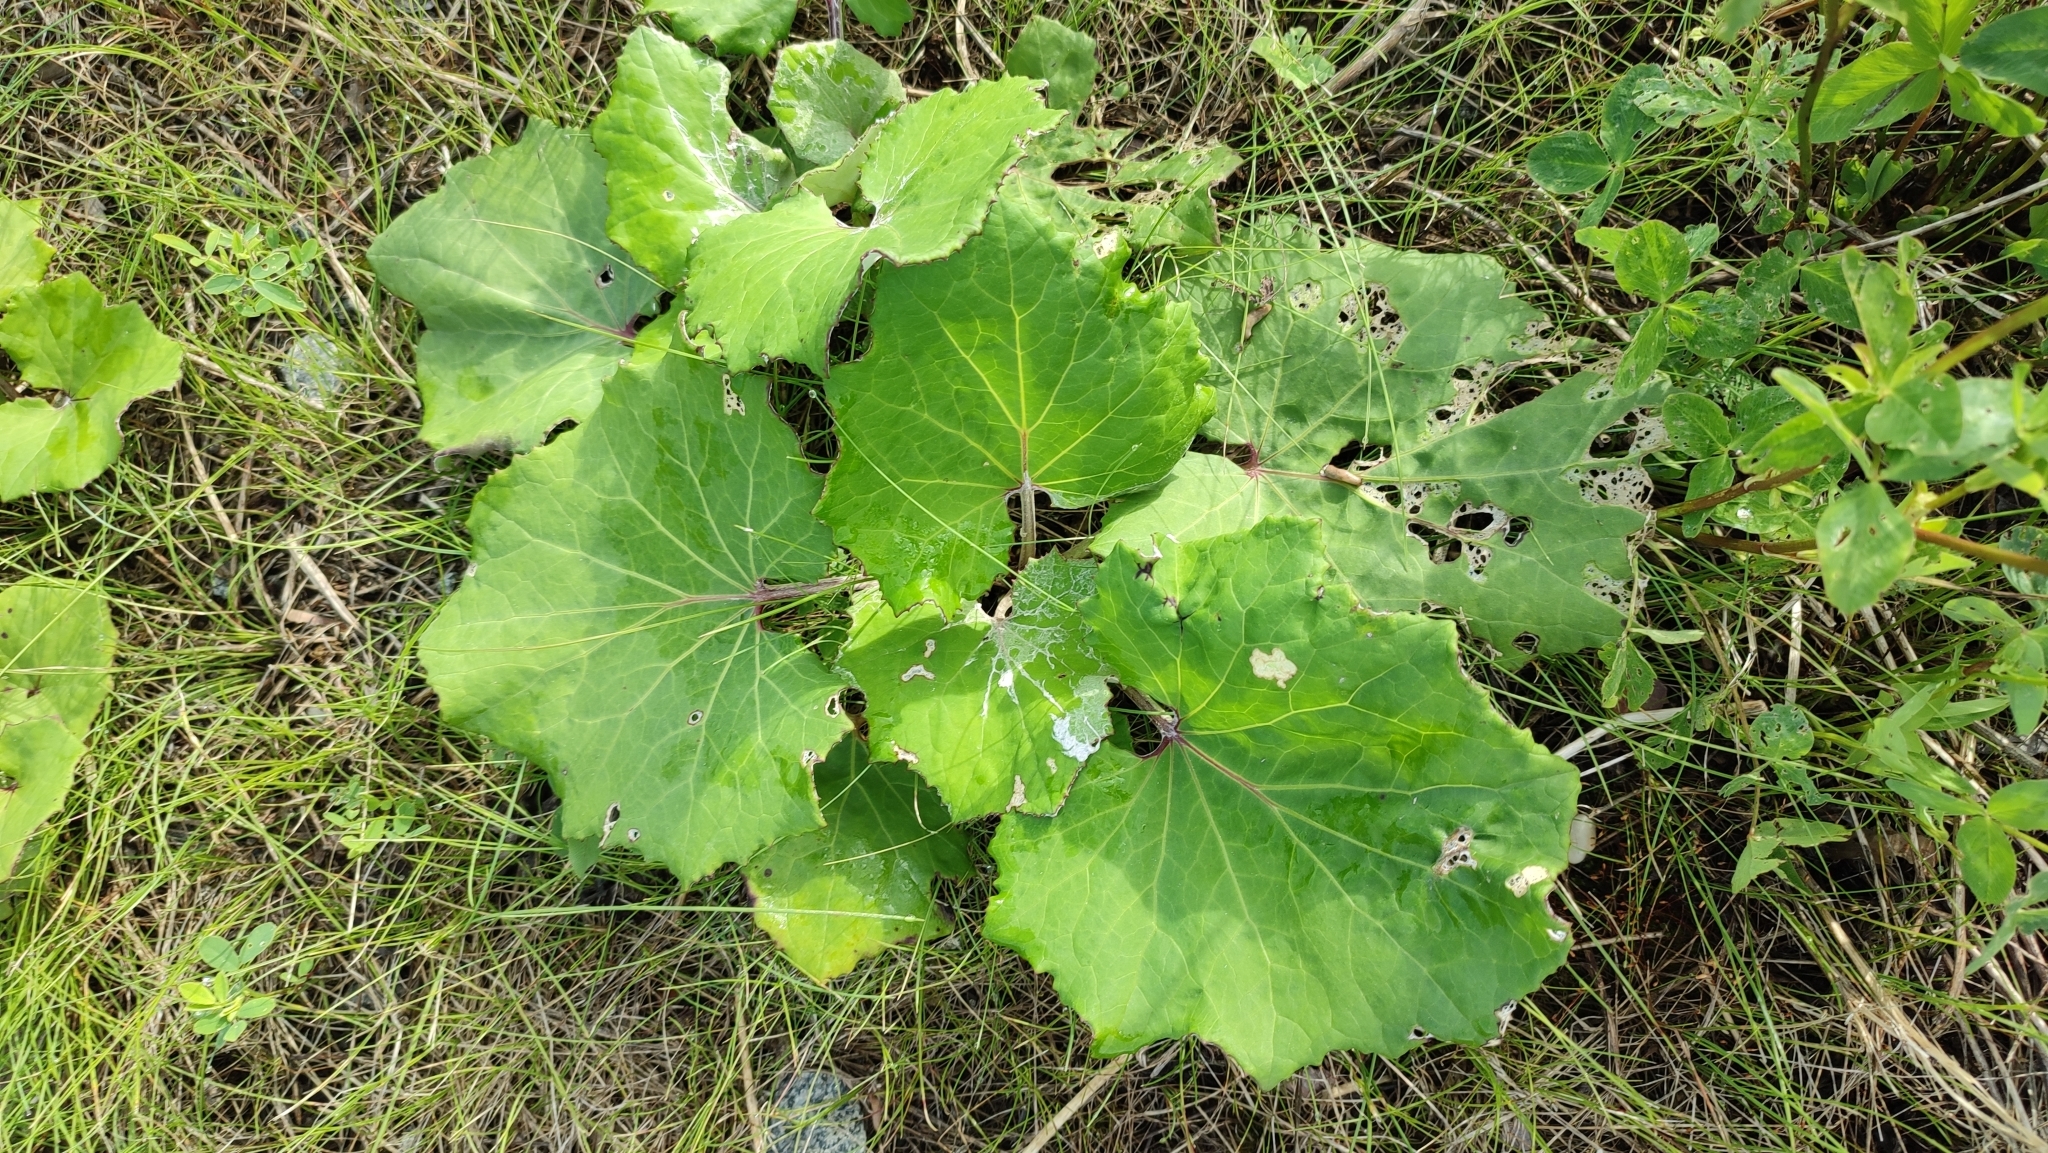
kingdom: Plantae
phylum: Tracheophyta
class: Magnoliopsida
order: Asterales
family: Asteraceae
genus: Tussilago
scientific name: Tussilago farfara
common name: Coltsfoot
